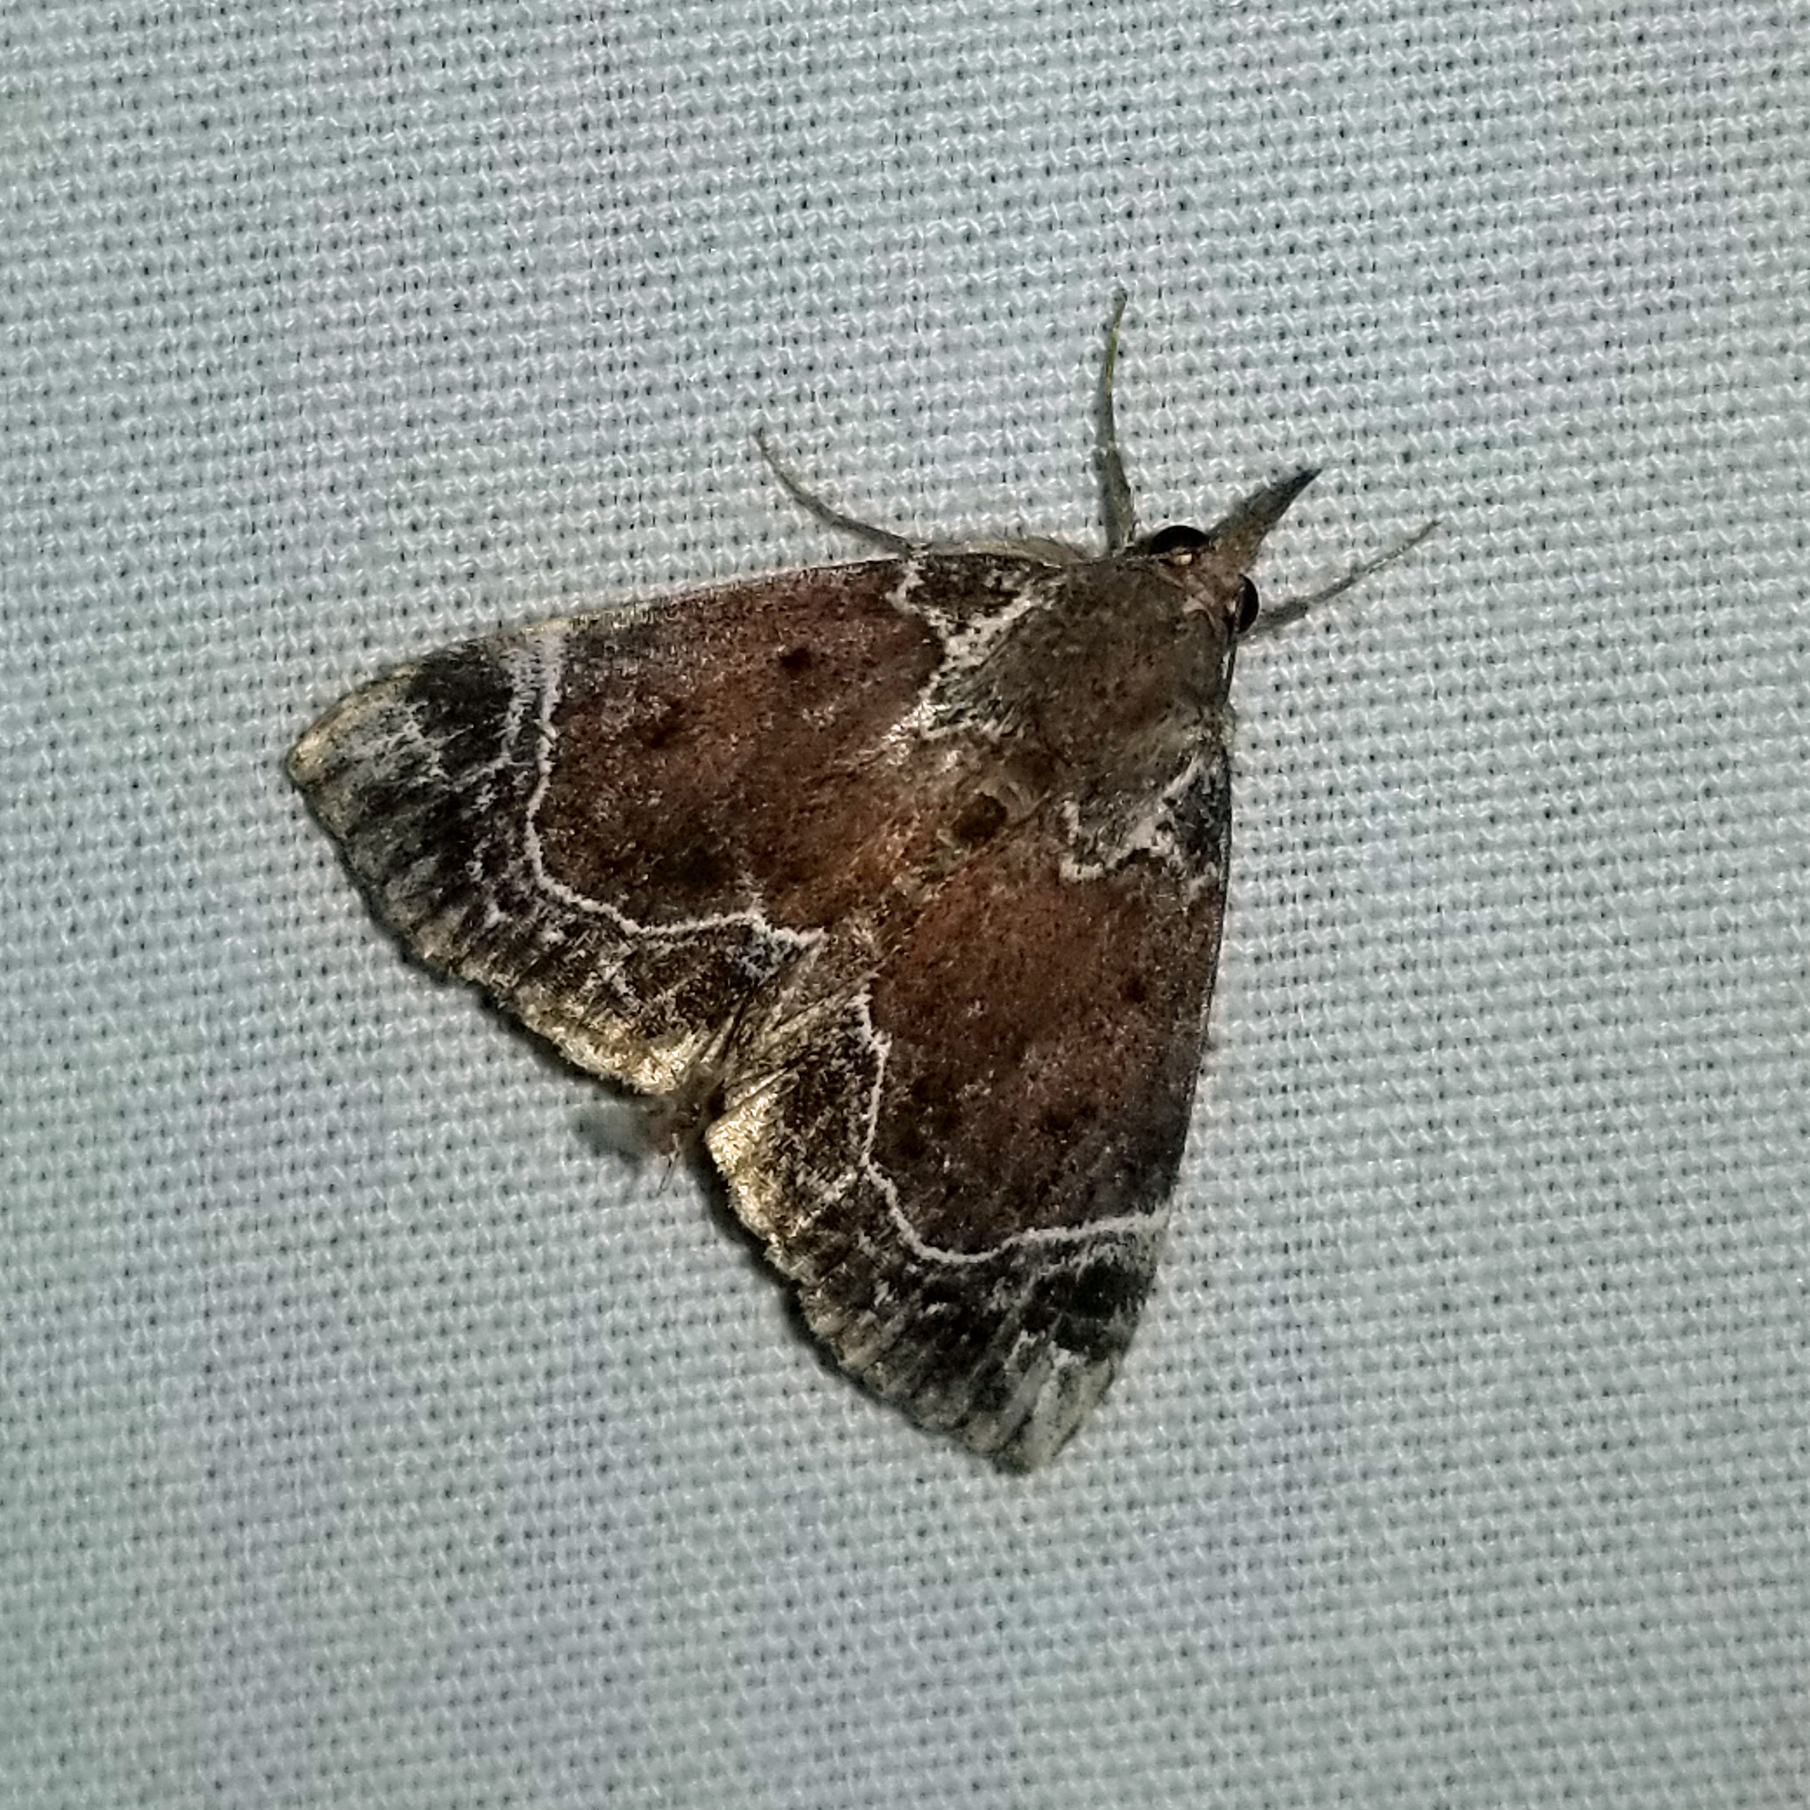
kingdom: Animalia
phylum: Arthropoda
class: Insecta
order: Lepidoptera
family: Erebidae
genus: Hypena
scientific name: Hypena abalienalis
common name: White-lined snout
